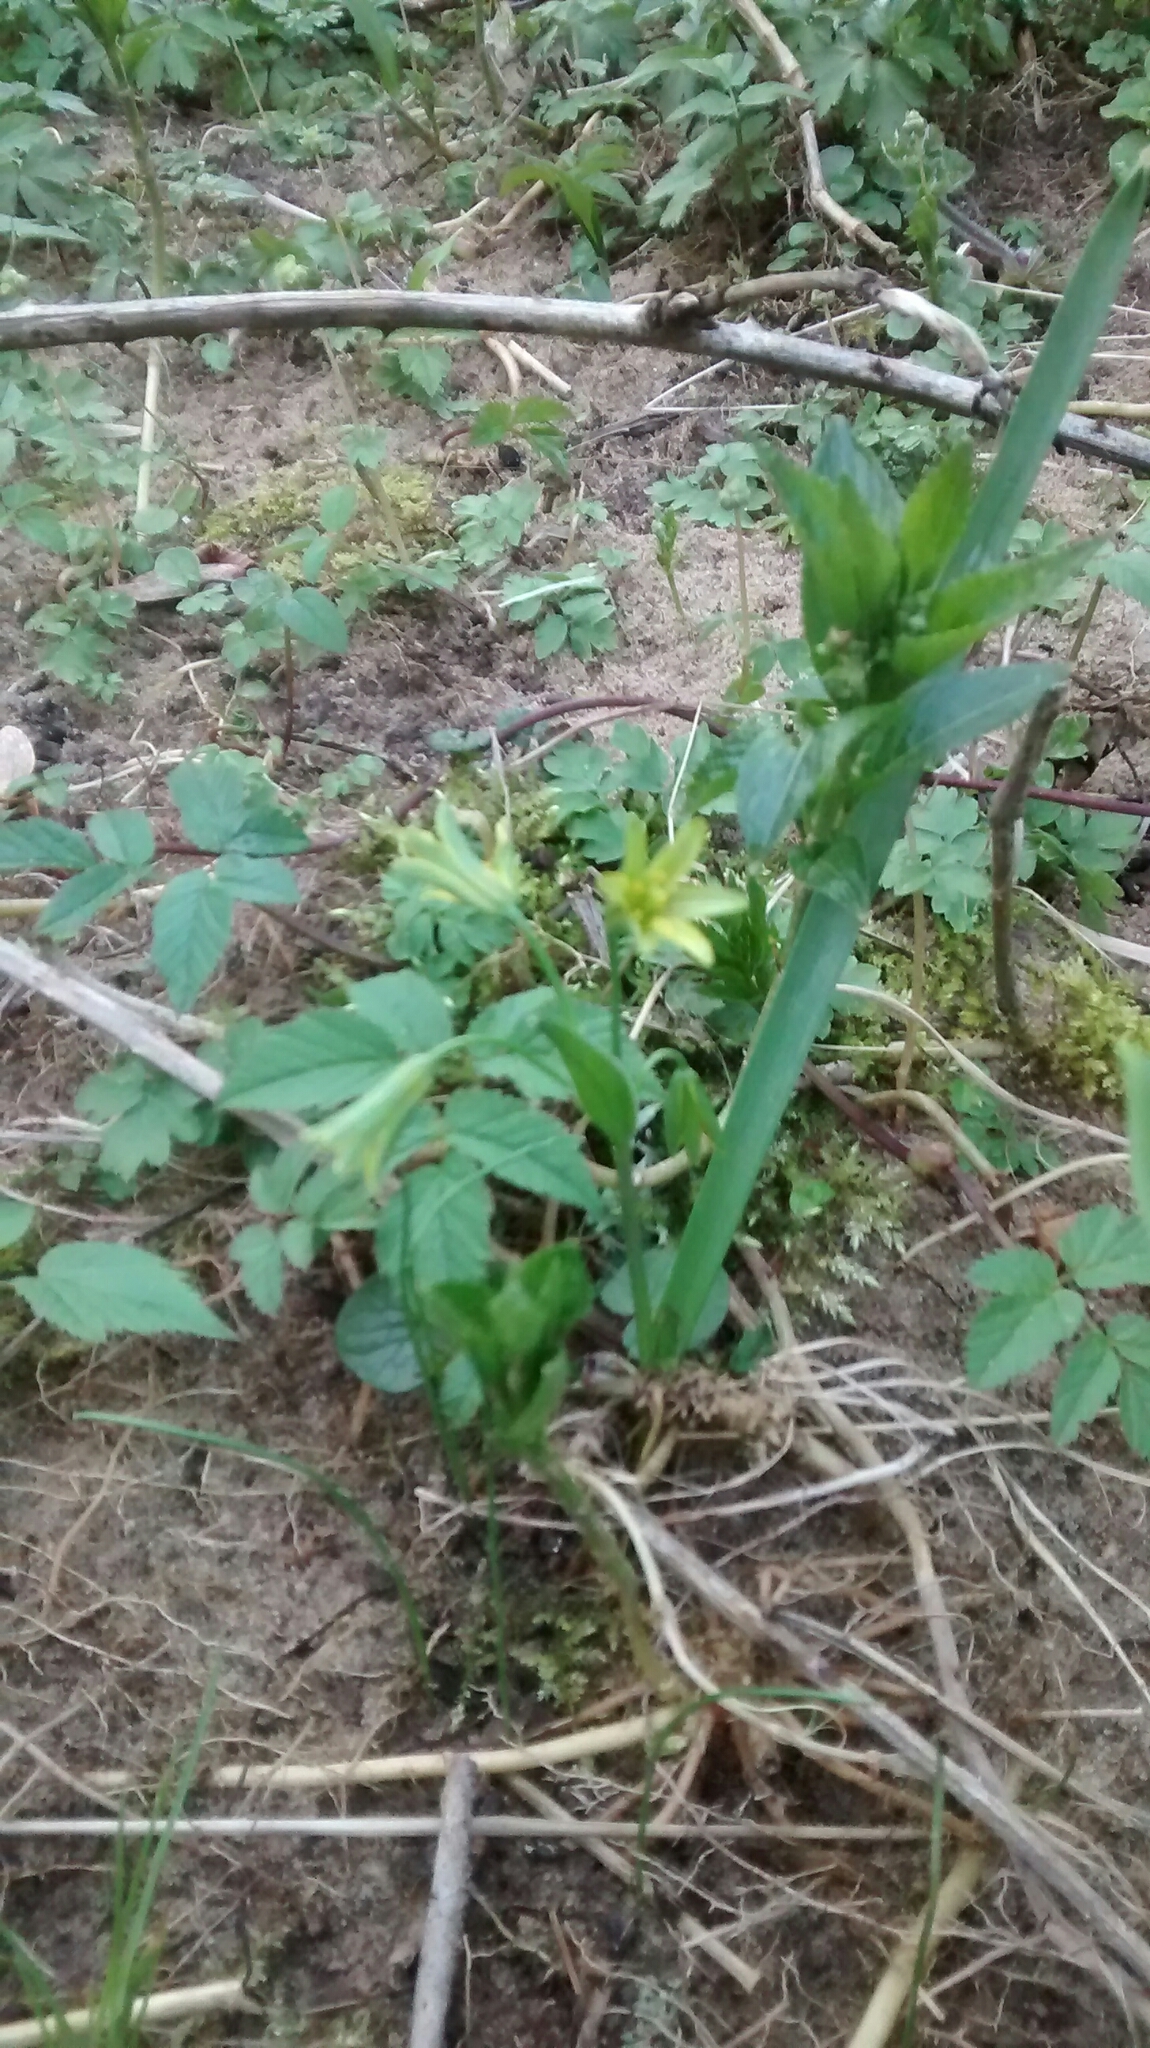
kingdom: Plantae
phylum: Tracheophyta
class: Liliopsida
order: Liliales
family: Liliaceae
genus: Gagea
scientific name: Gagea lutea
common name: Yellow star-of-bethlehem
